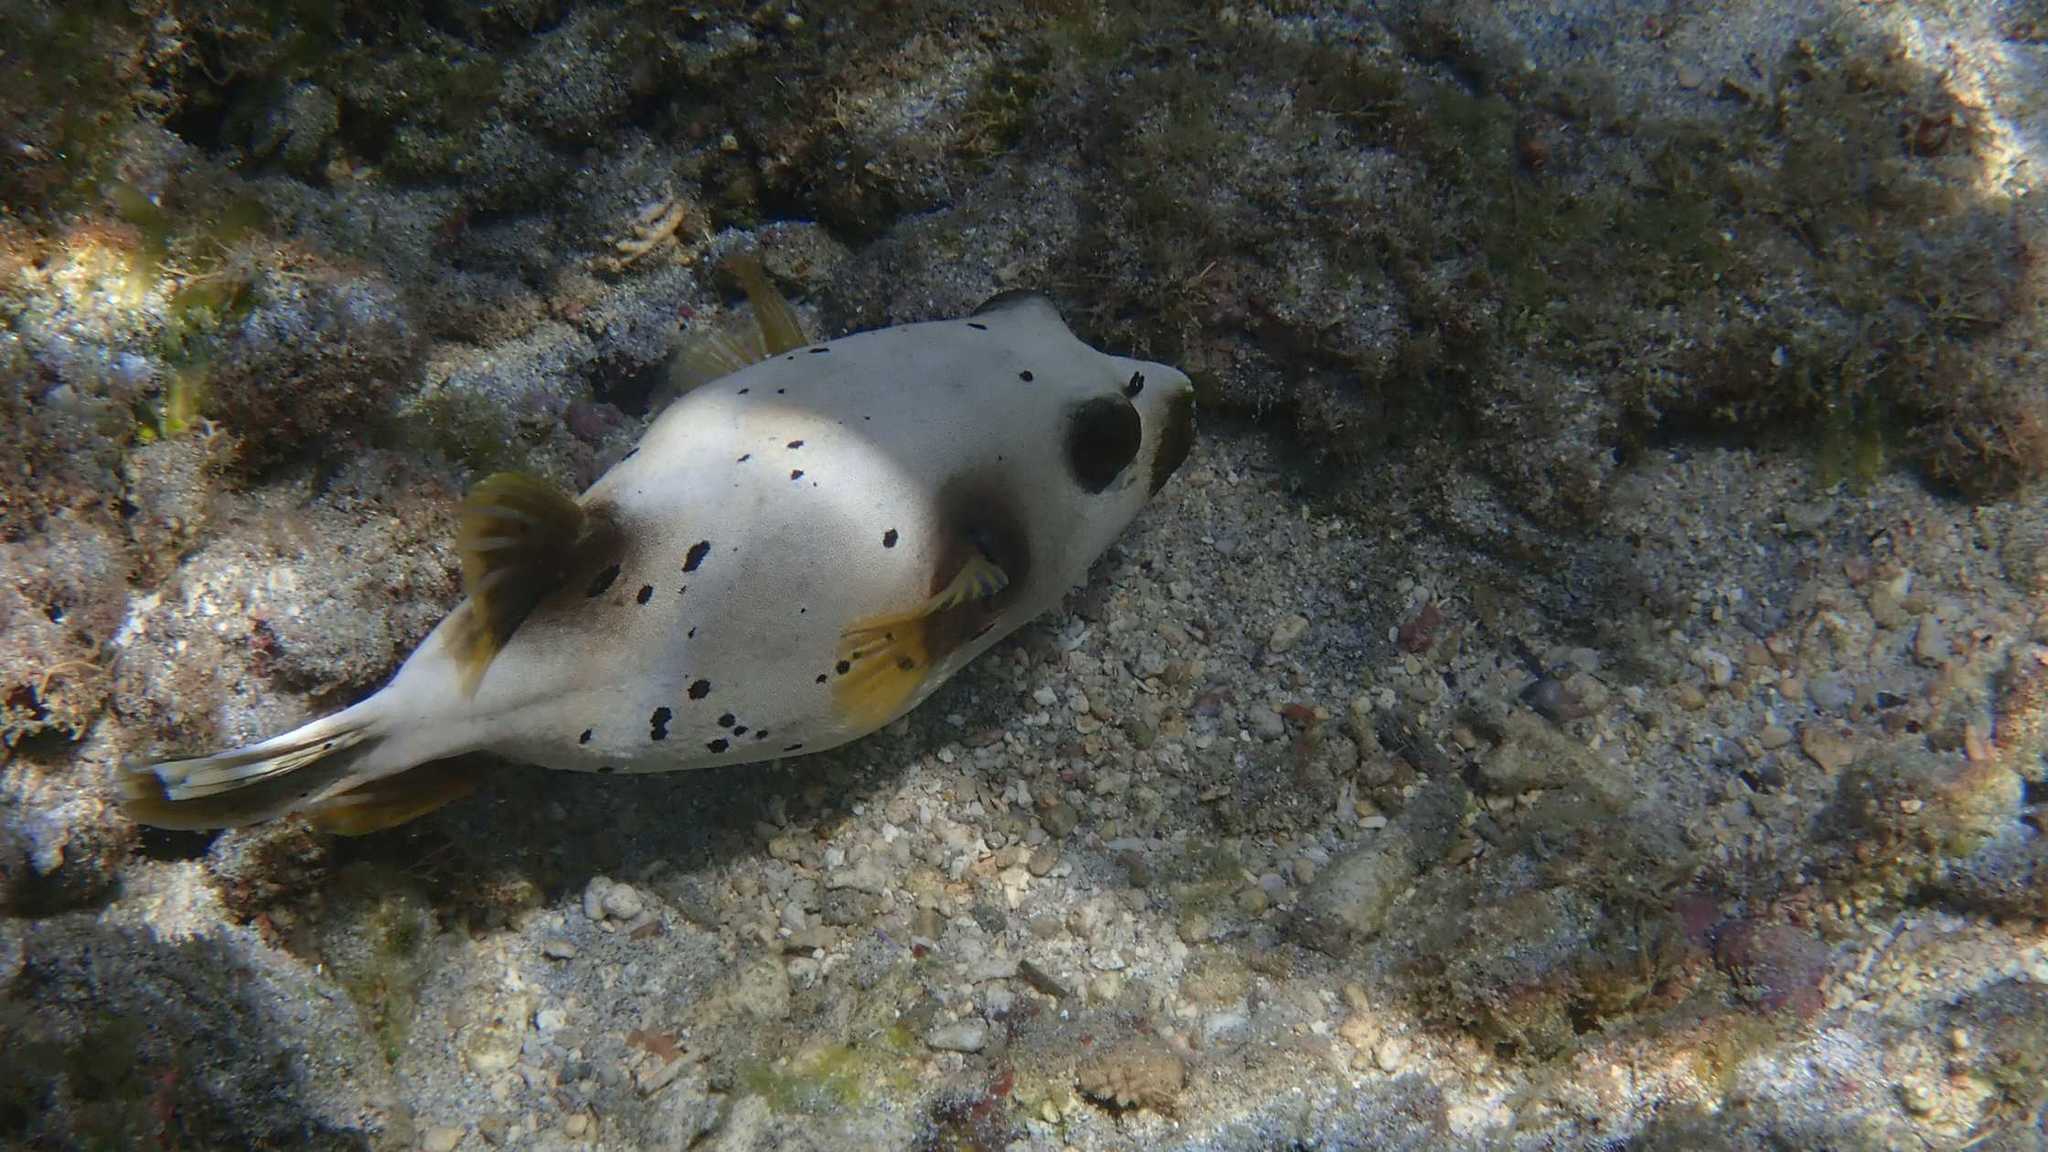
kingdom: Animalia
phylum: Chordata
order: Tetraodontiformes
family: Tetraodontidae
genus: Arothron
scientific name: Arothron nigropunctatus
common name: Black spotted blow fish
